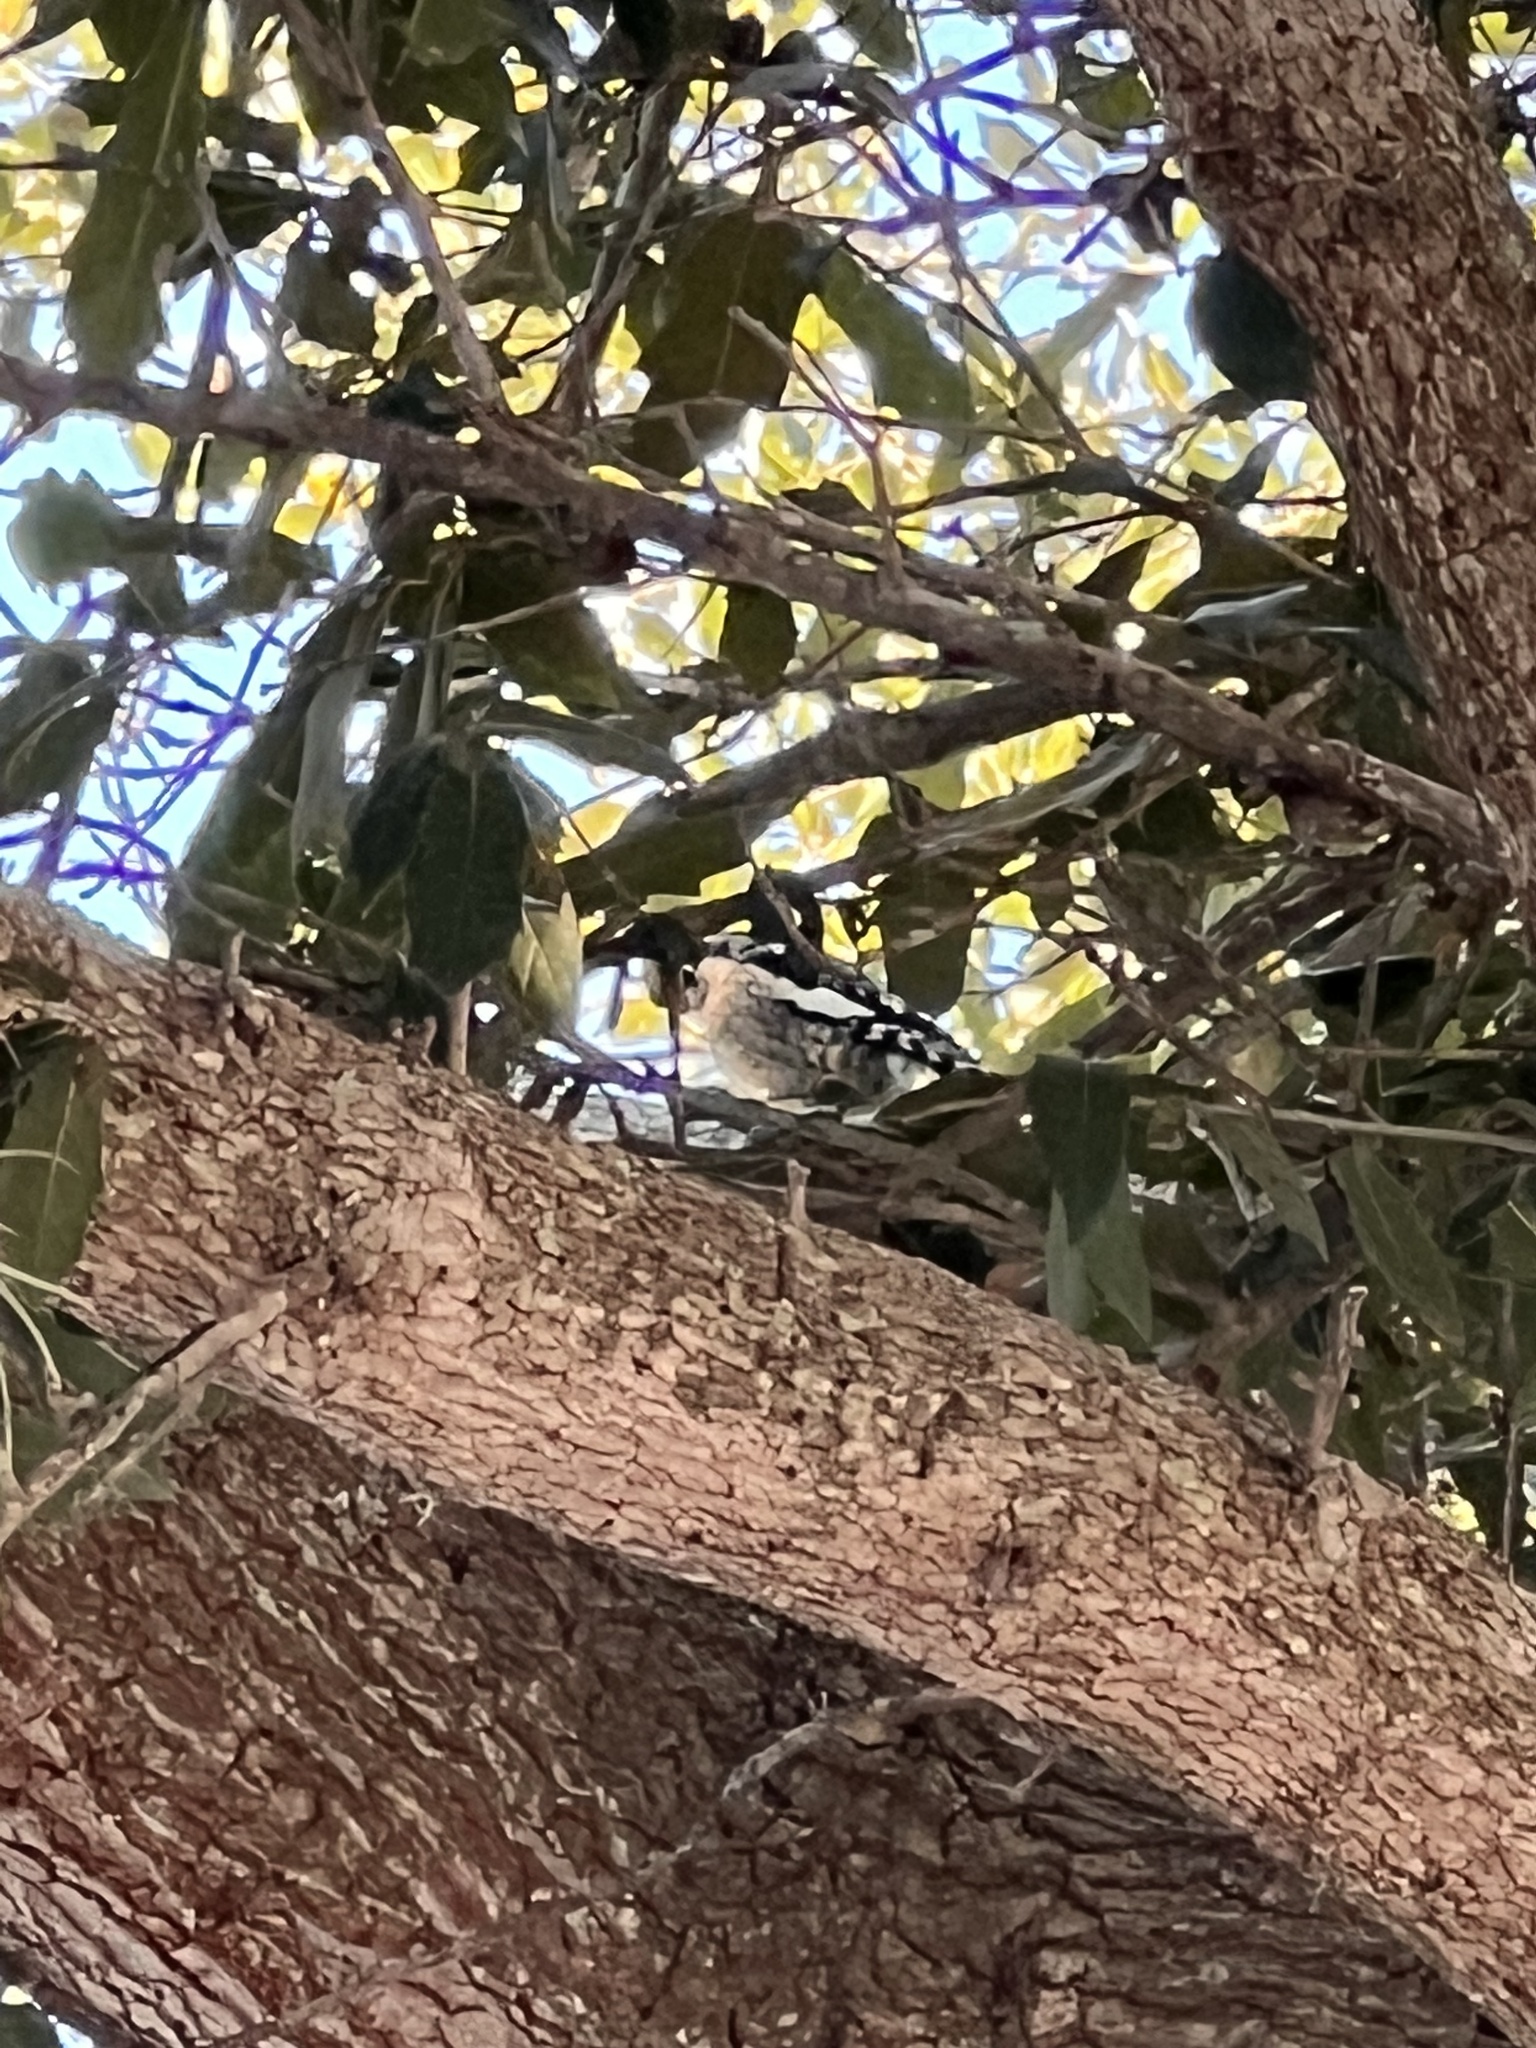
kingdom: Animalia
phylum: Chordata
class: Aves
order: Piciformes
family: Picidae
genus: Sphyrapicus
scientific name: Sphyrapicus varius
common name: Yellow-bellied sapsucker
